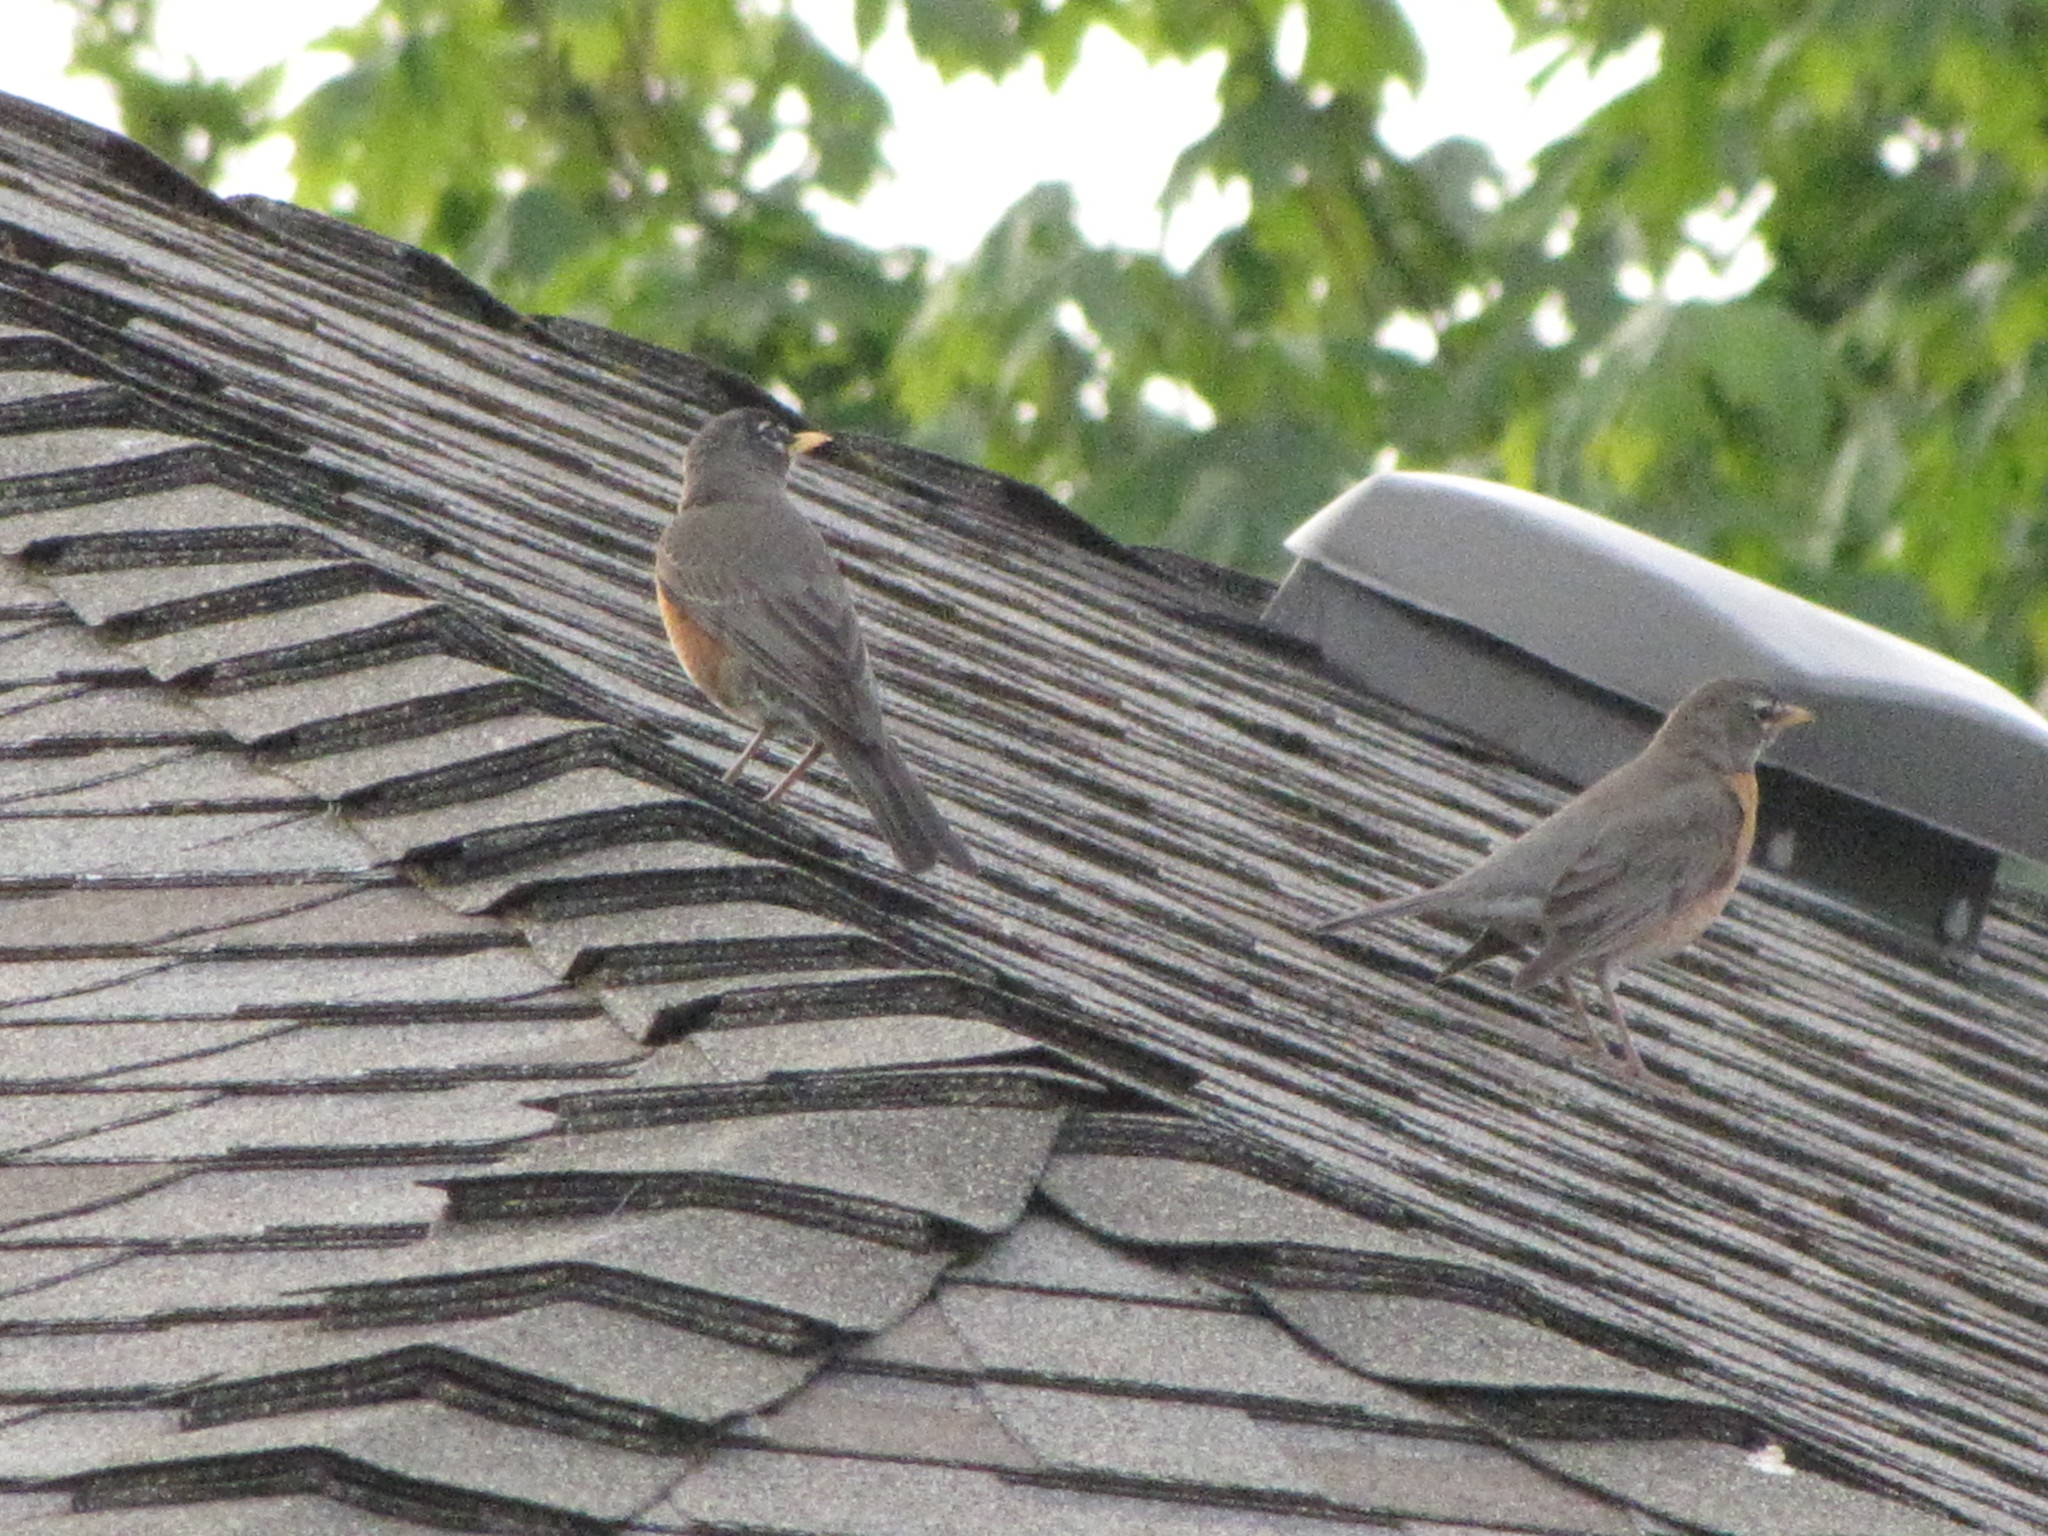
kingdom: Animalia
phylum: Chordata
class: Aves
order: Passeriformes
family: Turdidae
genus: Turdus
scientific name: Turdus migratorius
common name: American robin
